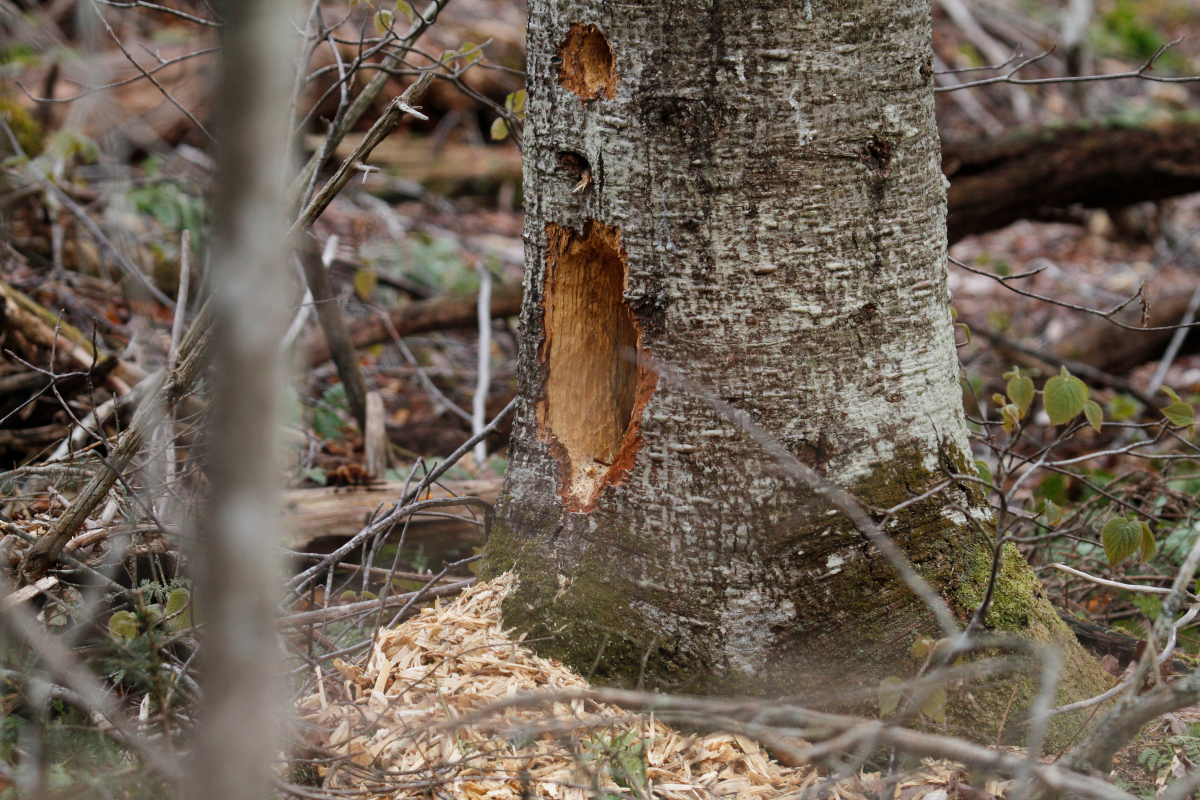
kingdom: Animalia
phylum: Chordata
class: Aves
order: Piciformes
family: Picidae
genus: Dryocopus
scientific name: Dryocopus pileatus
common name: Pileated woodpecker
